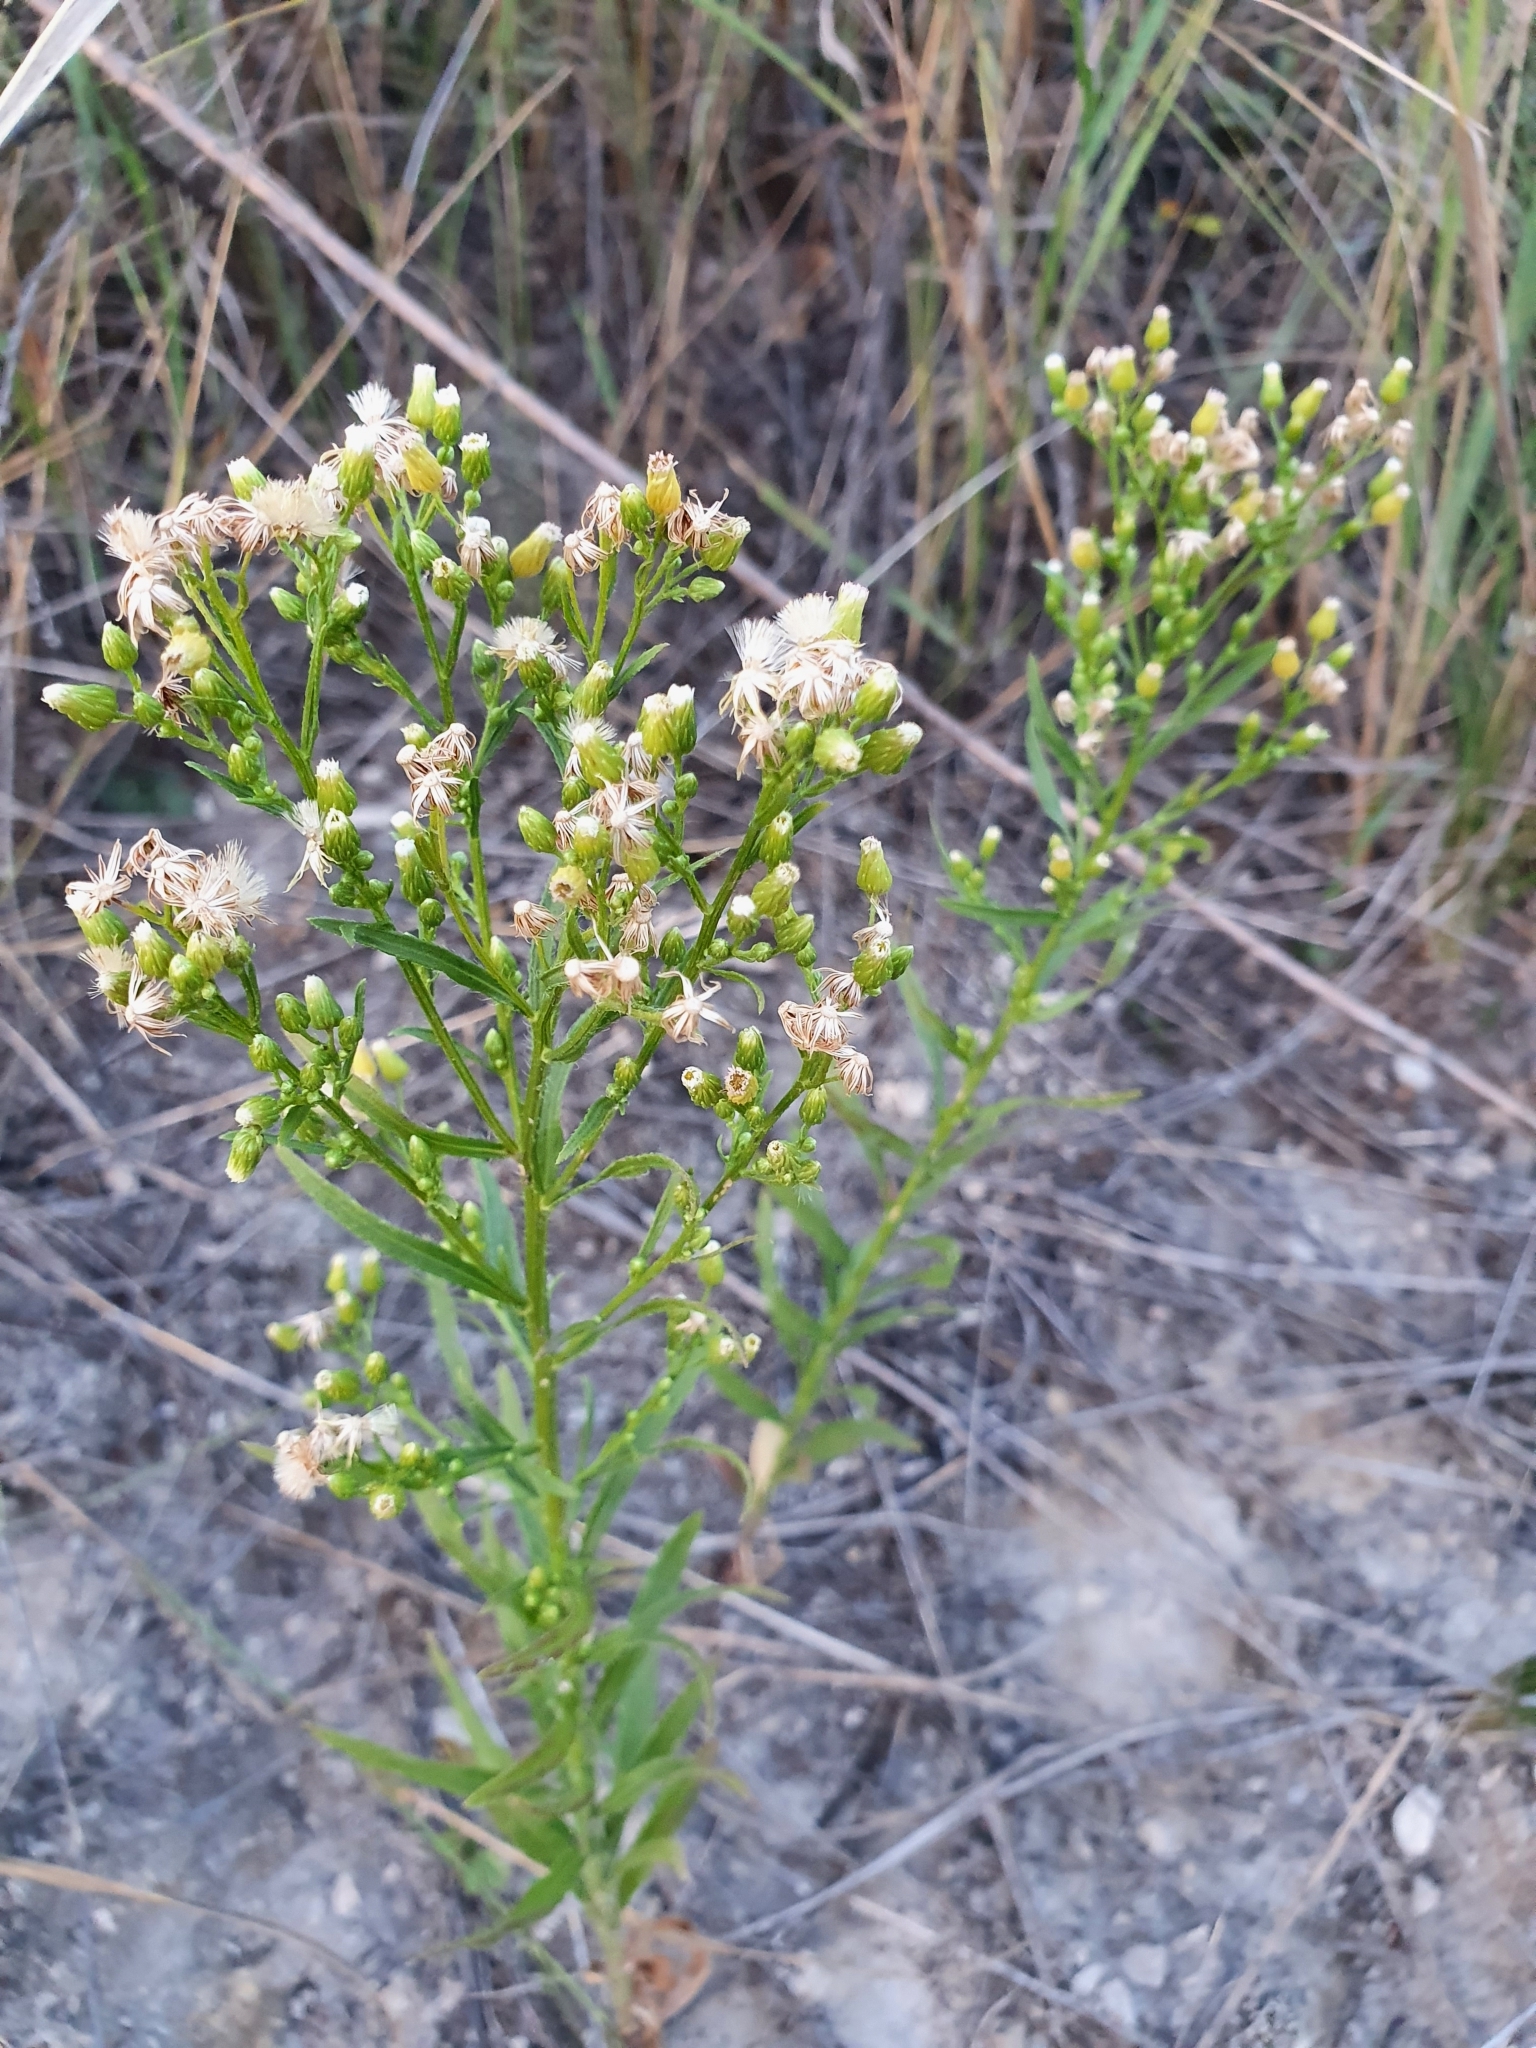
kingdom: Plantae
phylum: Tracheophyta
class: Magnoliopsida
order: Asterales
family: Asteraceae
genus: Erigeron
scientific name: Erigeron canadensis
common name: Canadian fleabane
